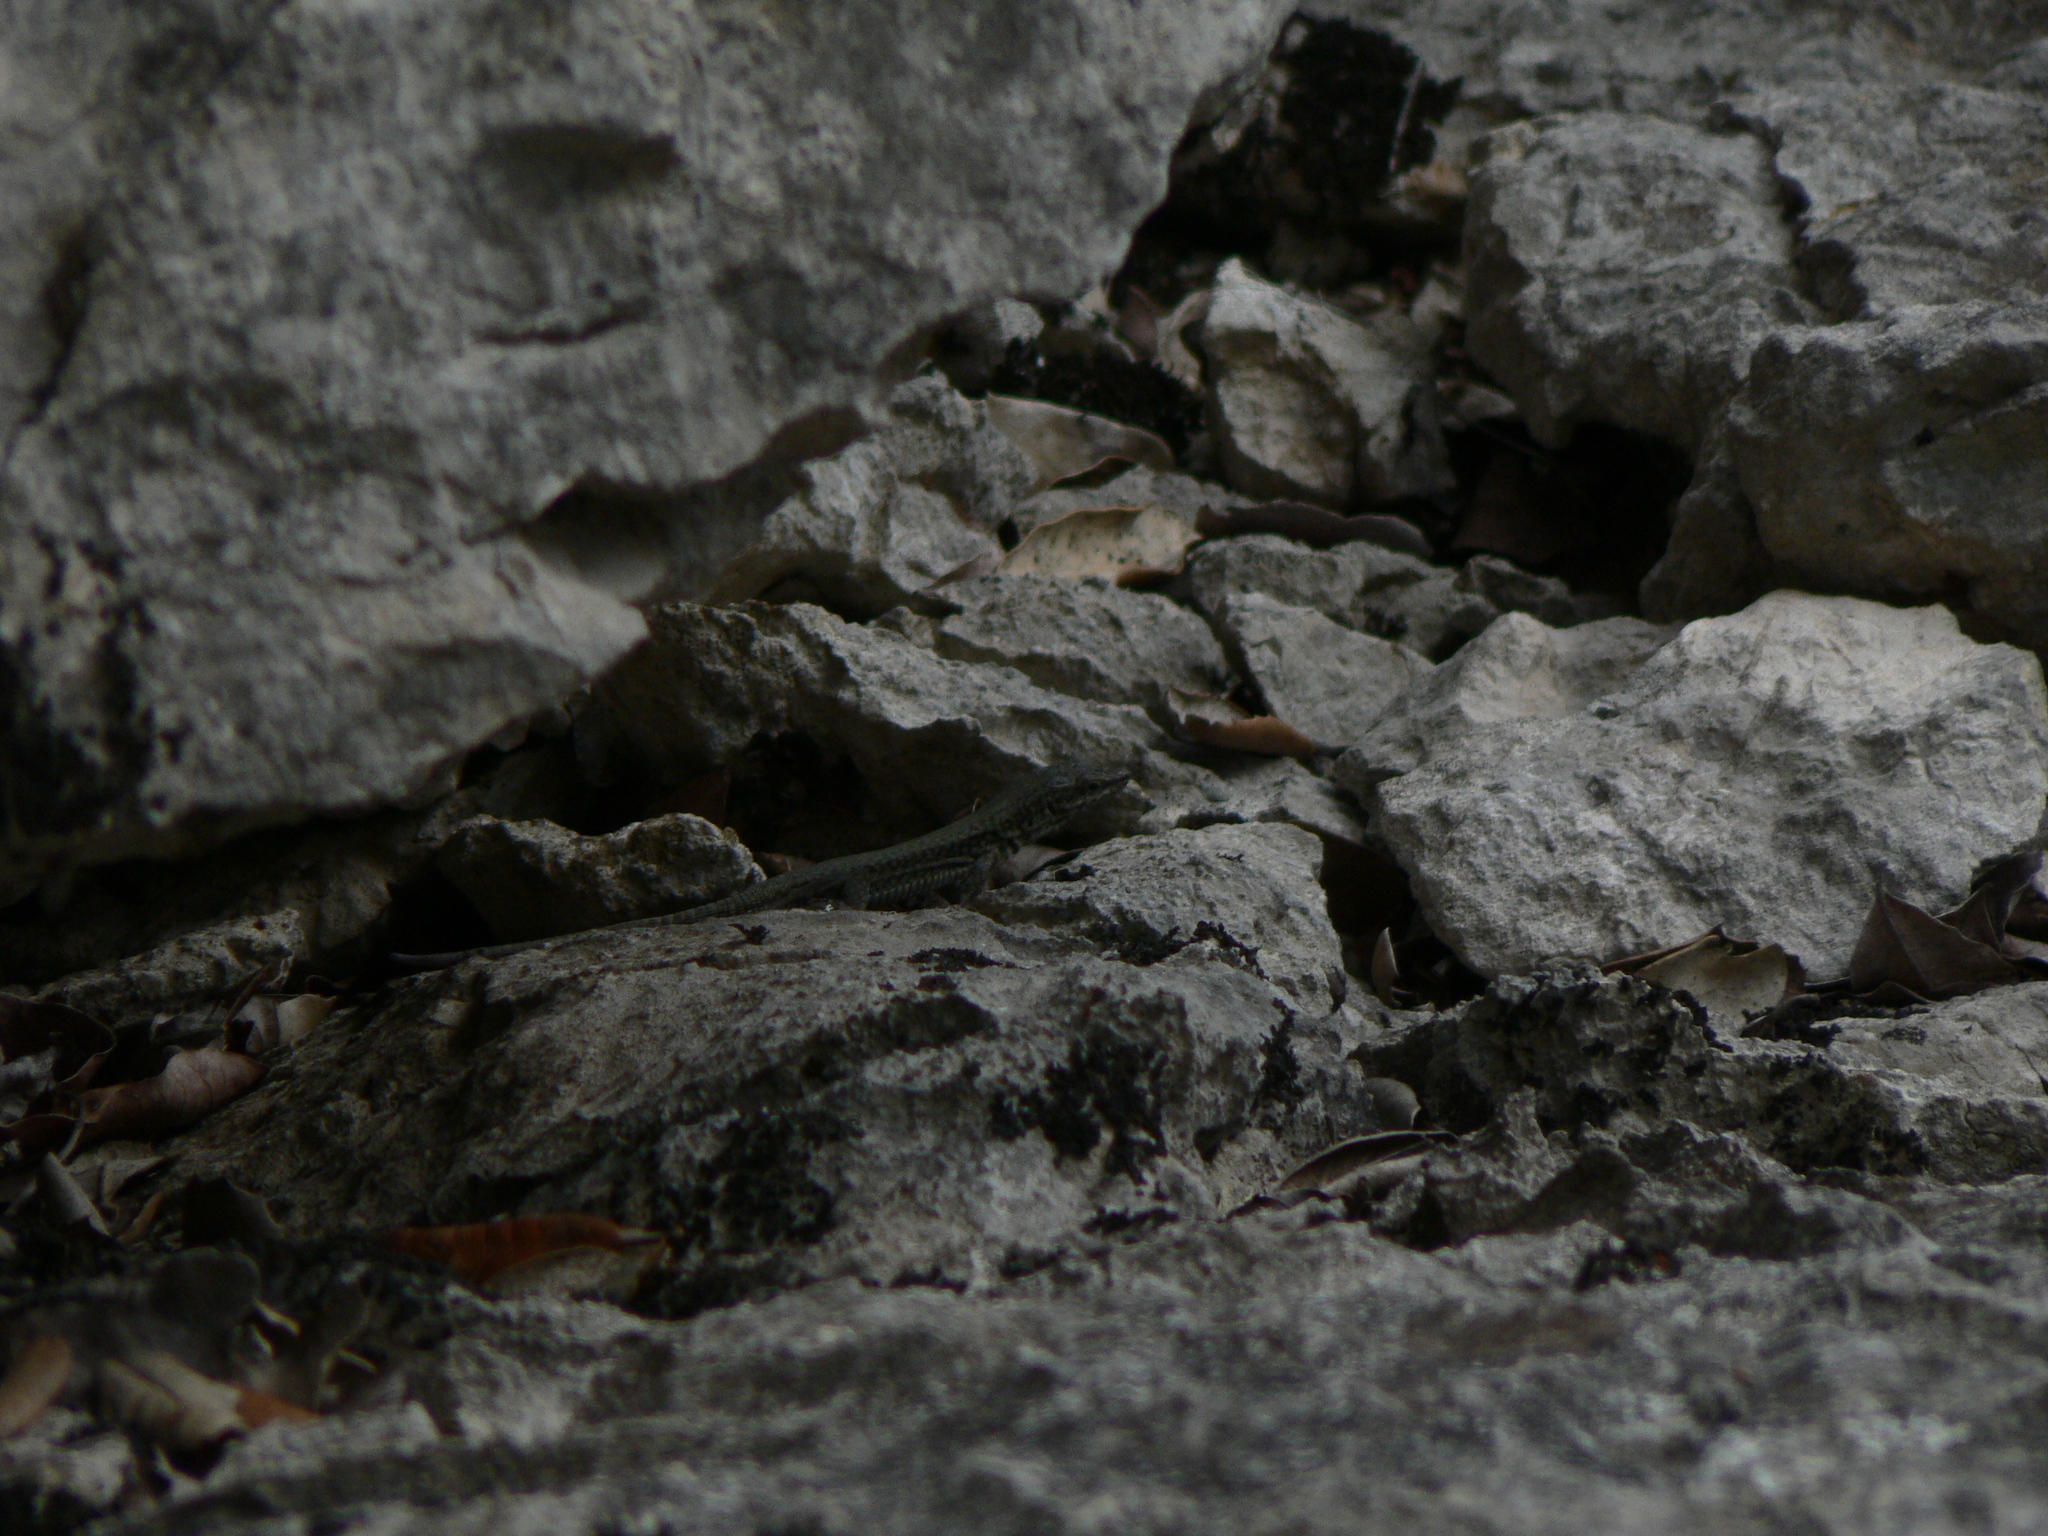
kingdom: Animalia
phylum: Chordata
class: Squamata
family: Lacertidae
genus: Podarcis
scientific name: Podarcis liolepis
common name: Catalonian wall lizard
